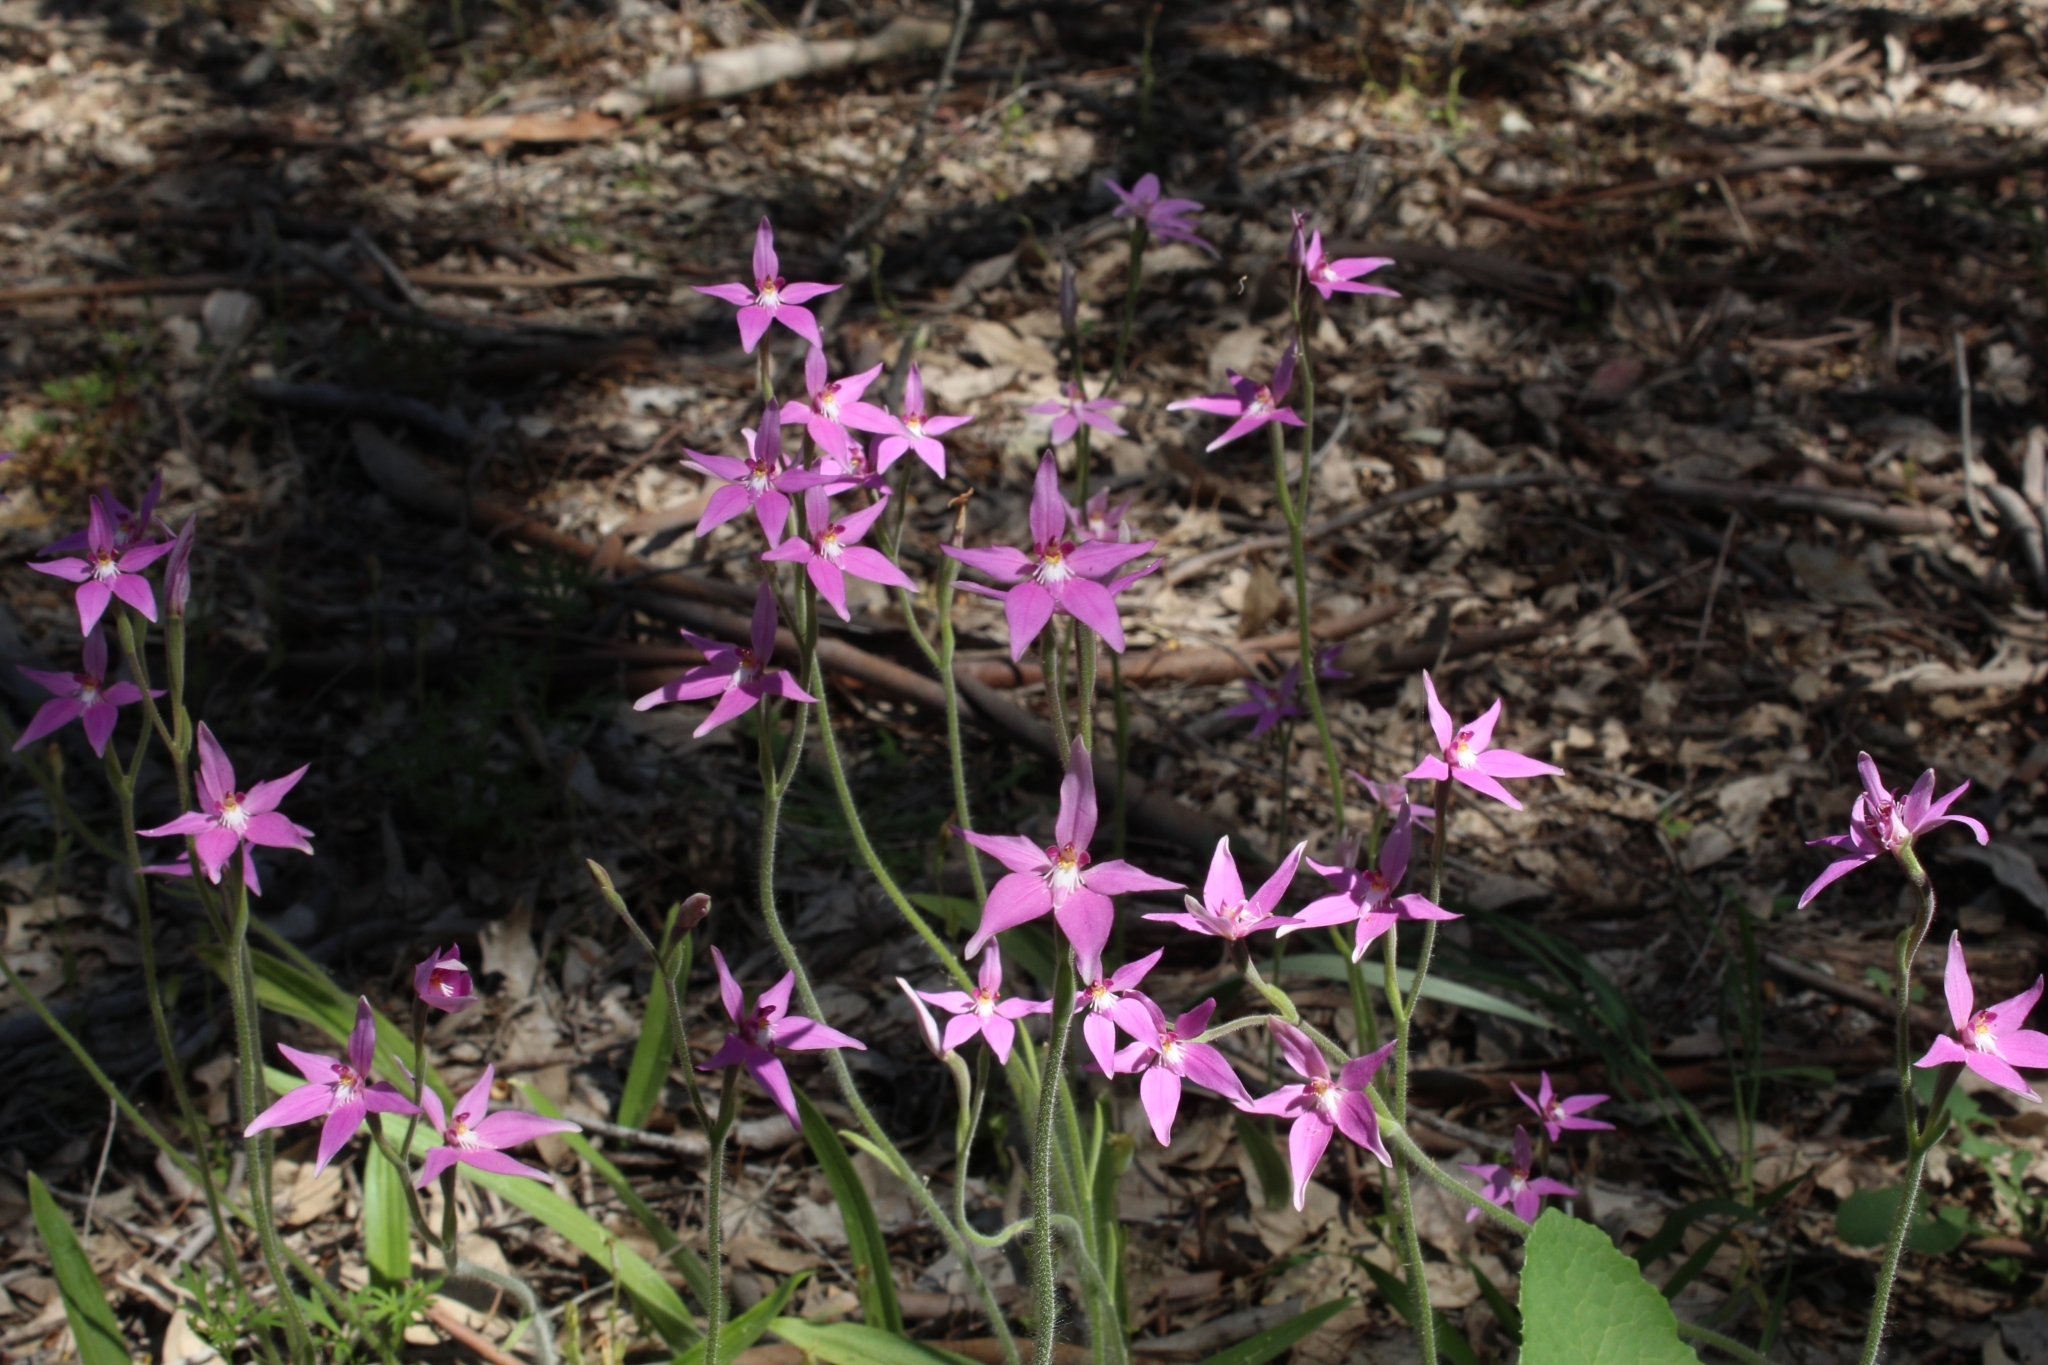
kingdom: Plantae
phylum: Tracheophyta
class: Liliopsida
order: Asparagales
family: Orchidaceae
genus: Caladenia
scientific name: Caladenia latifolia
